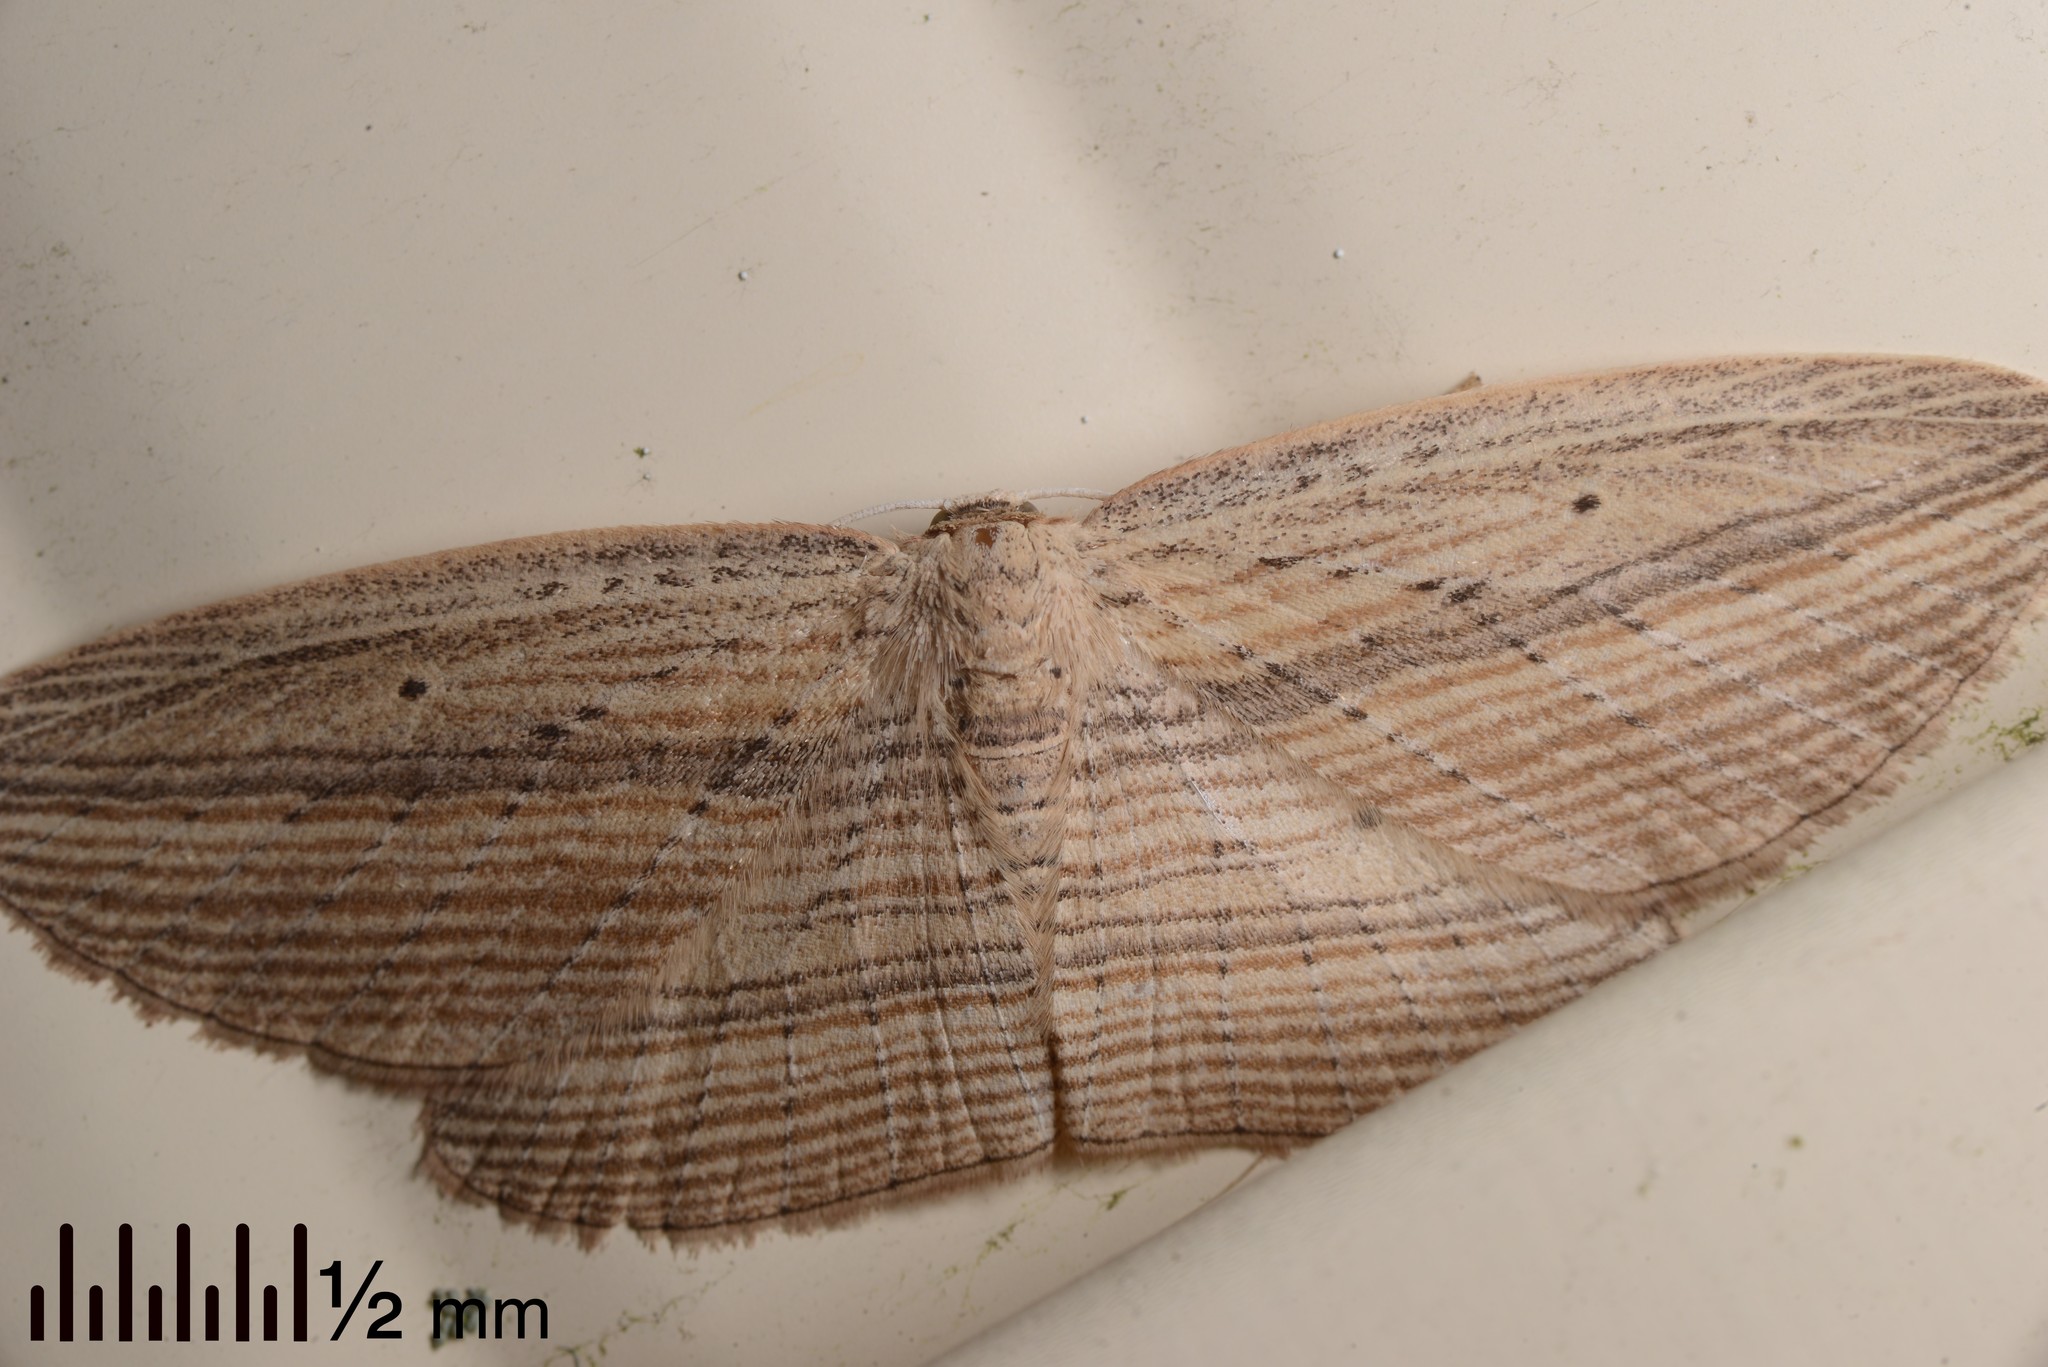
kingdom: Animalia
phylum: Arthropoda
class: Insecta
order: Lepidoptera
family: Geometridae
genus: Epiphryne
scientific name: Epiphryne verriculata
